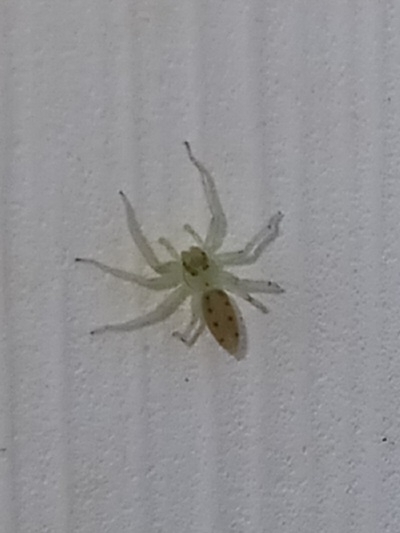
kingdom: Animalia
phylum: Arthropoda
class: Arachnida
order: Araneae
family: Salticidae
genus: Lyssomanes
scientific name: Lyssomanes viridis
